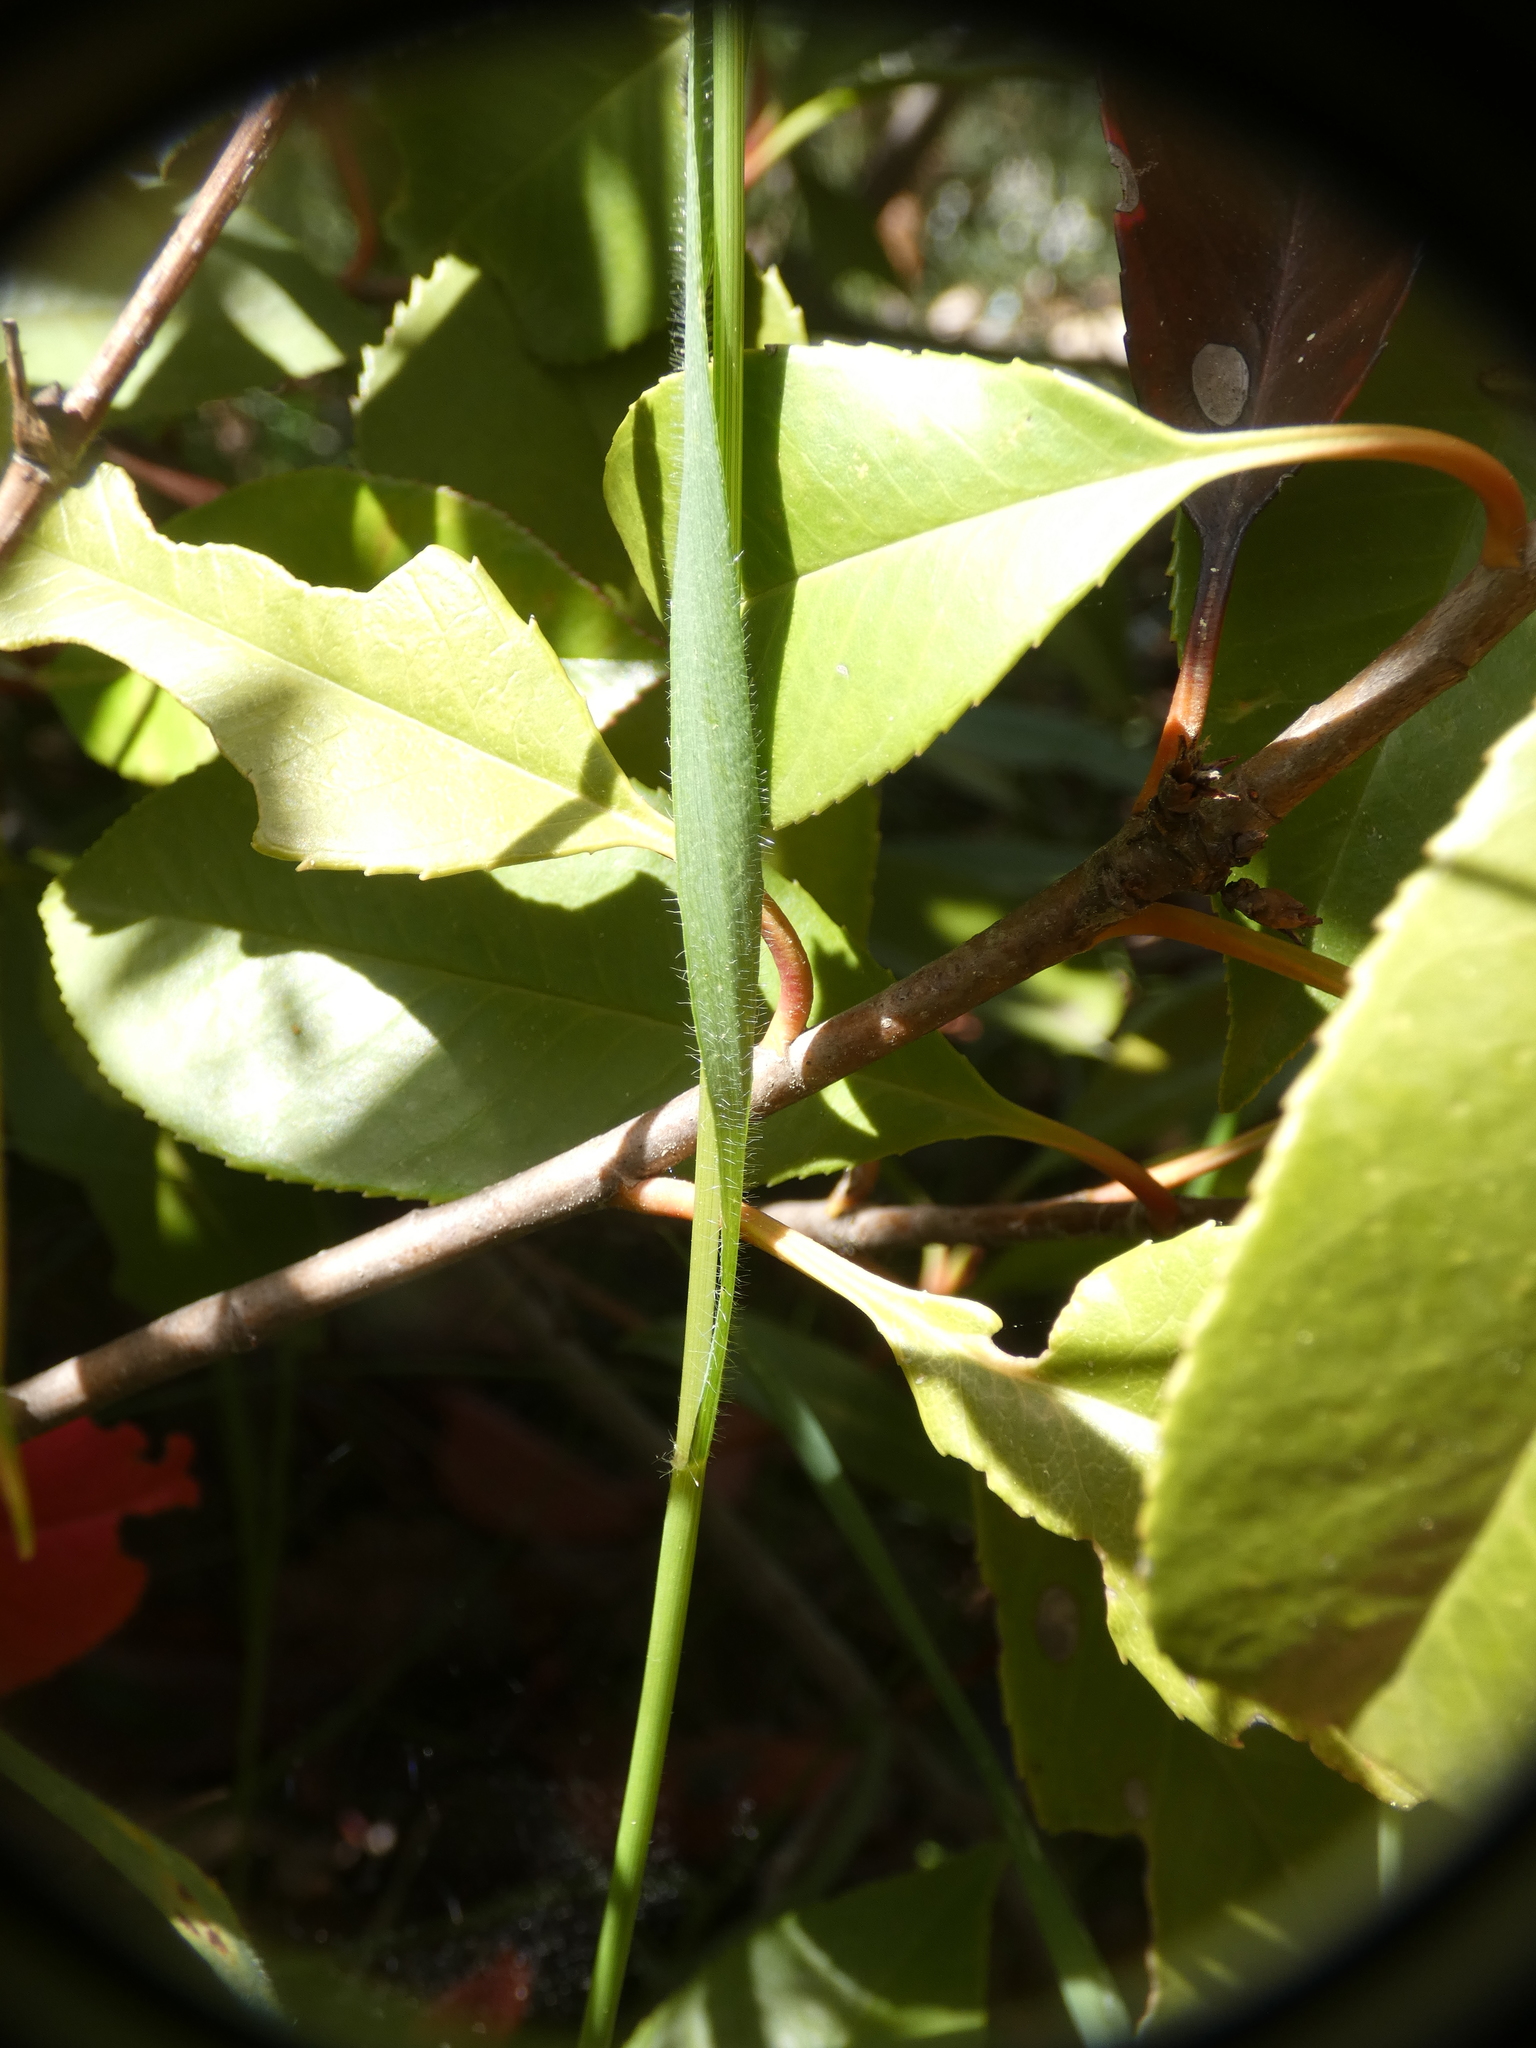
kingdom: Plantae
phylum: Tracheophyta
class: Liliopsida
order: Poales
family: Poaceae
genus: Aegilops
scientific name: Aegilops neglecta
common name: Three-awn goat grass
